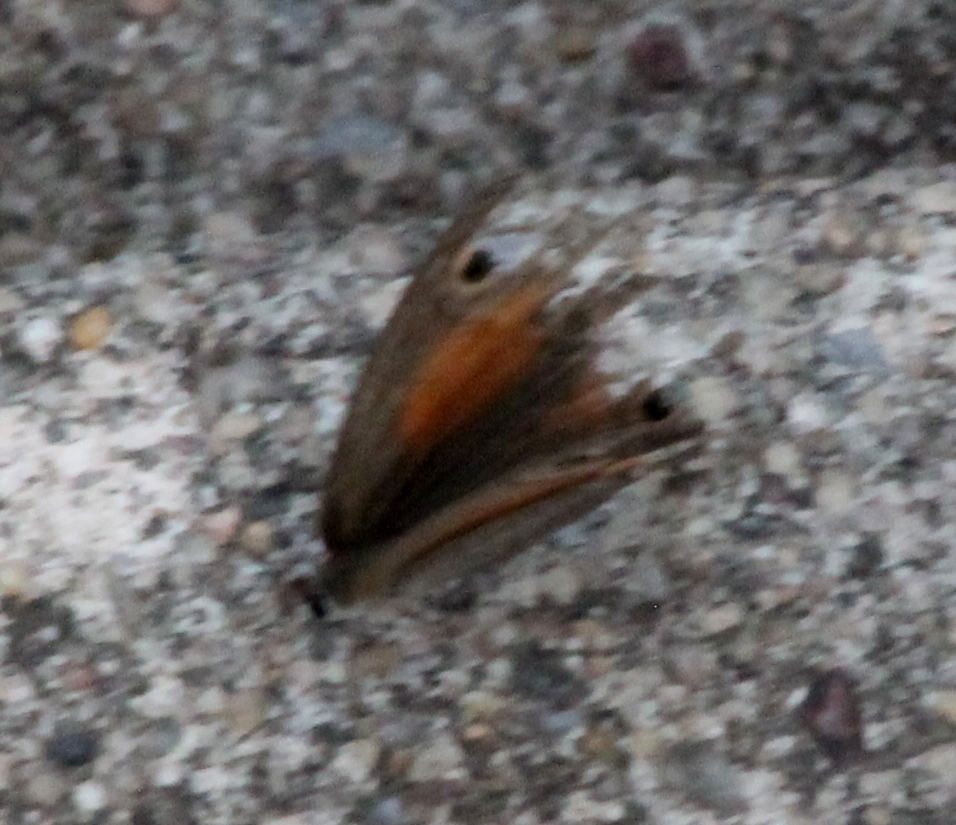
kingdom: Animalia
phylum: Arthropoda
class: Insecta
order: Lepidoptera
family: Nymphalidae
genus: Euptychia
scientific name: Euptychia Cissia rubricata
